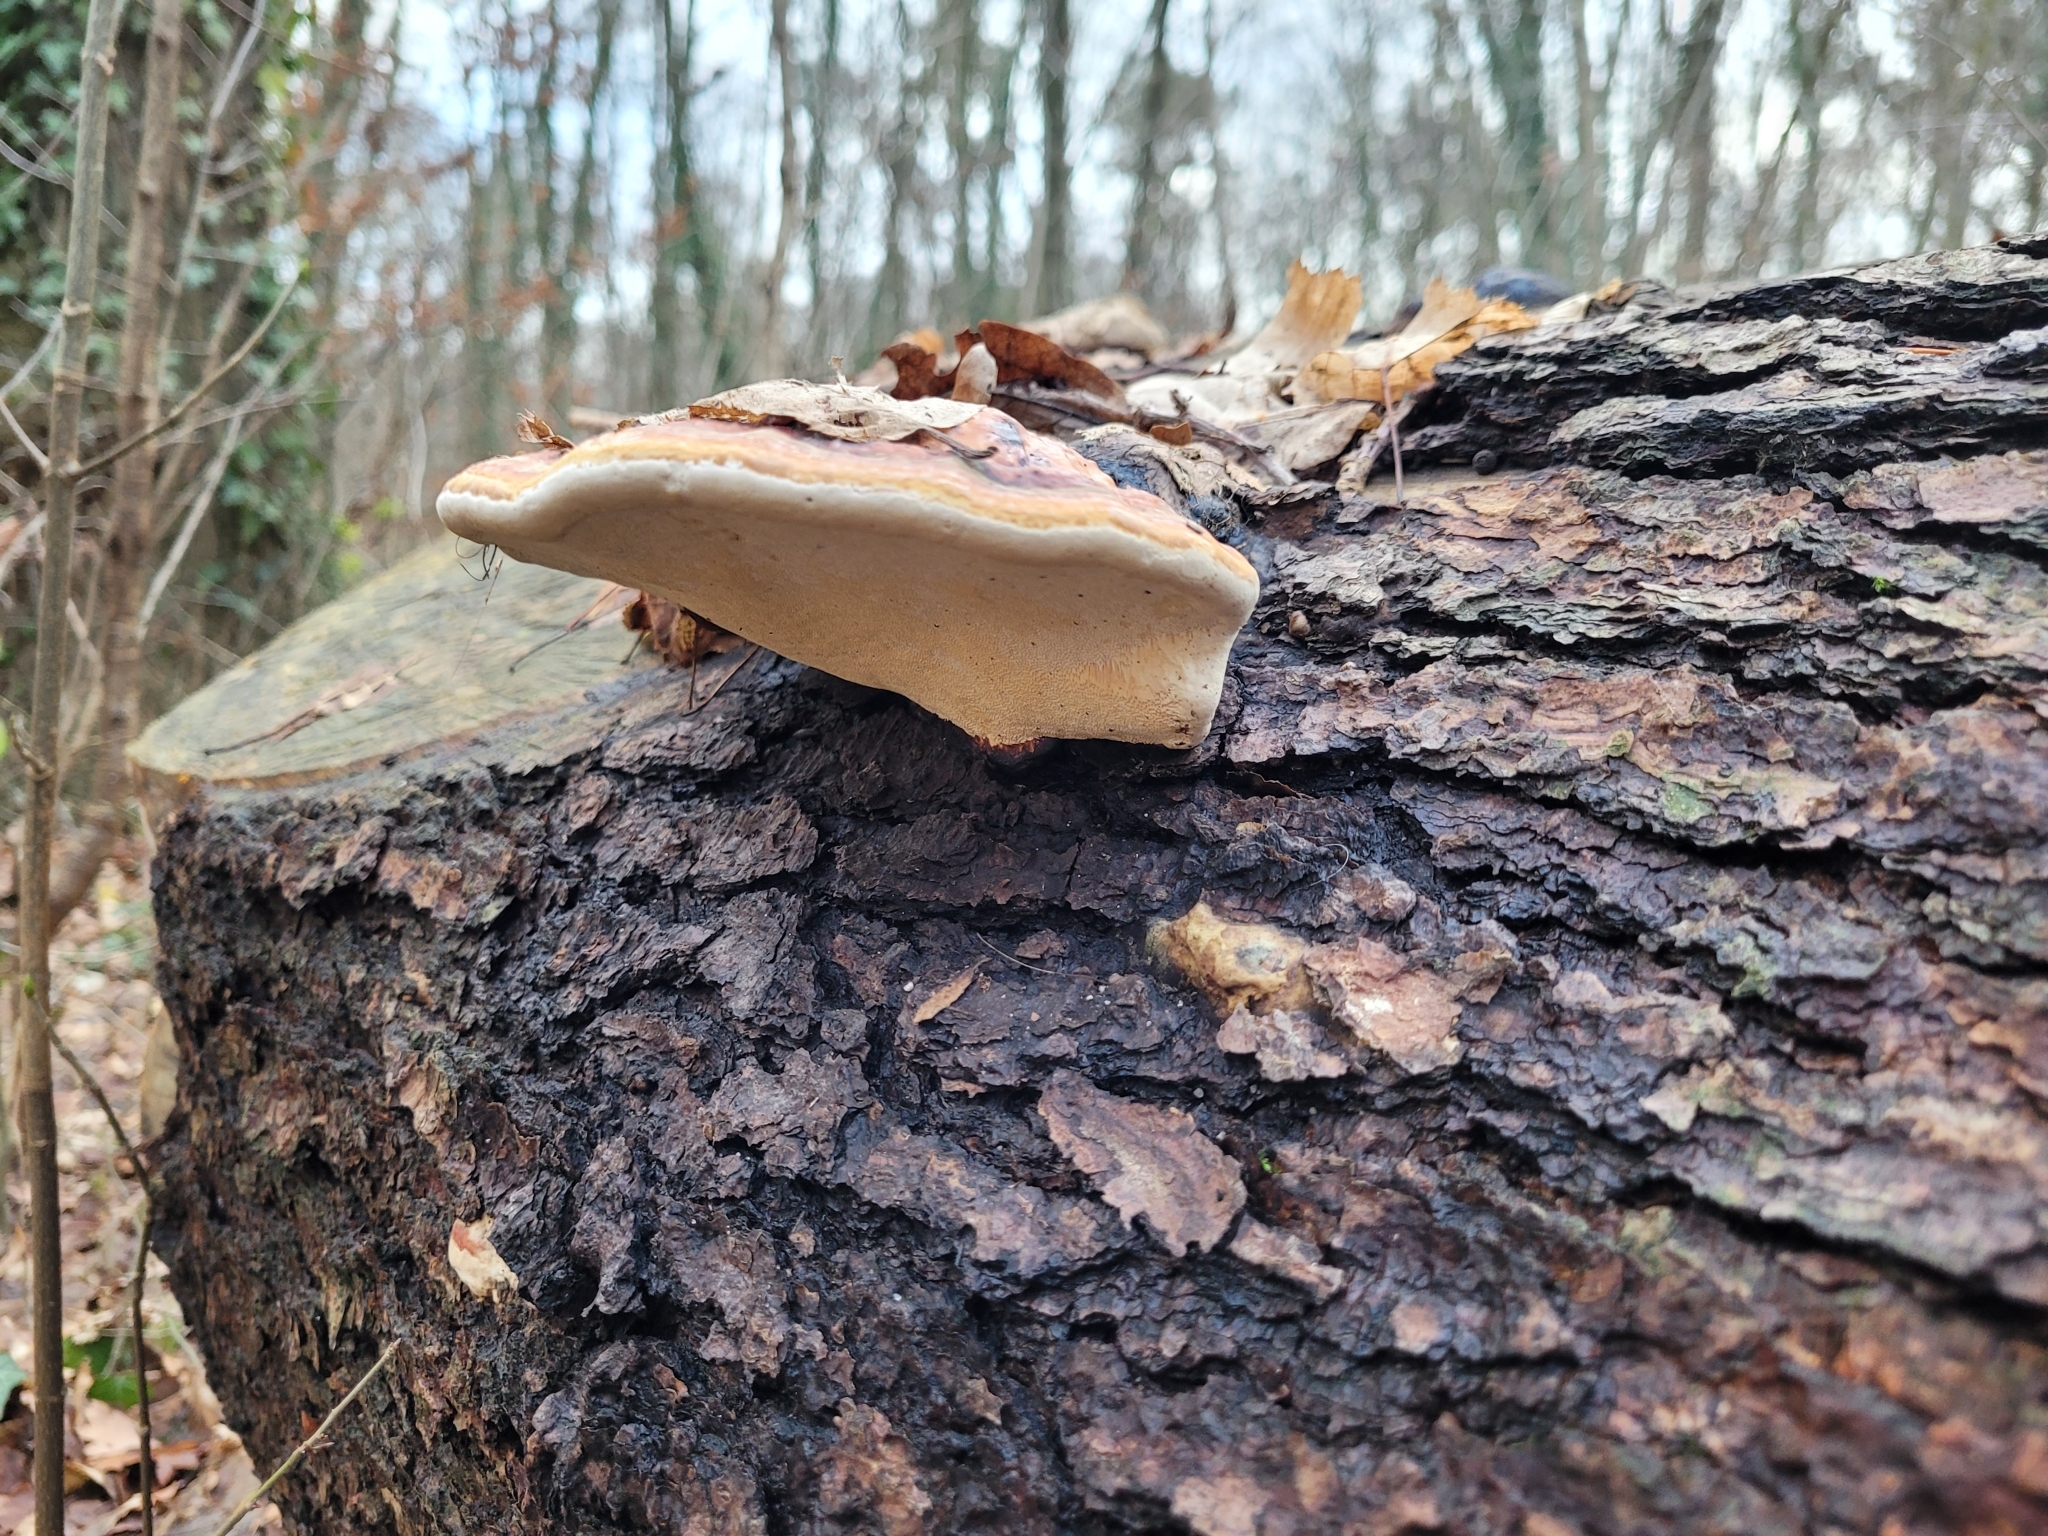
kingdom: Fungi
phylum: Basidiomycota
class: Agaricomycetes
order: Polyporales
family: Fomitopsidaceae
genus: Fomitopsis
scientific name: Fomitopsis pinicola
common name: Red-belted bracket
